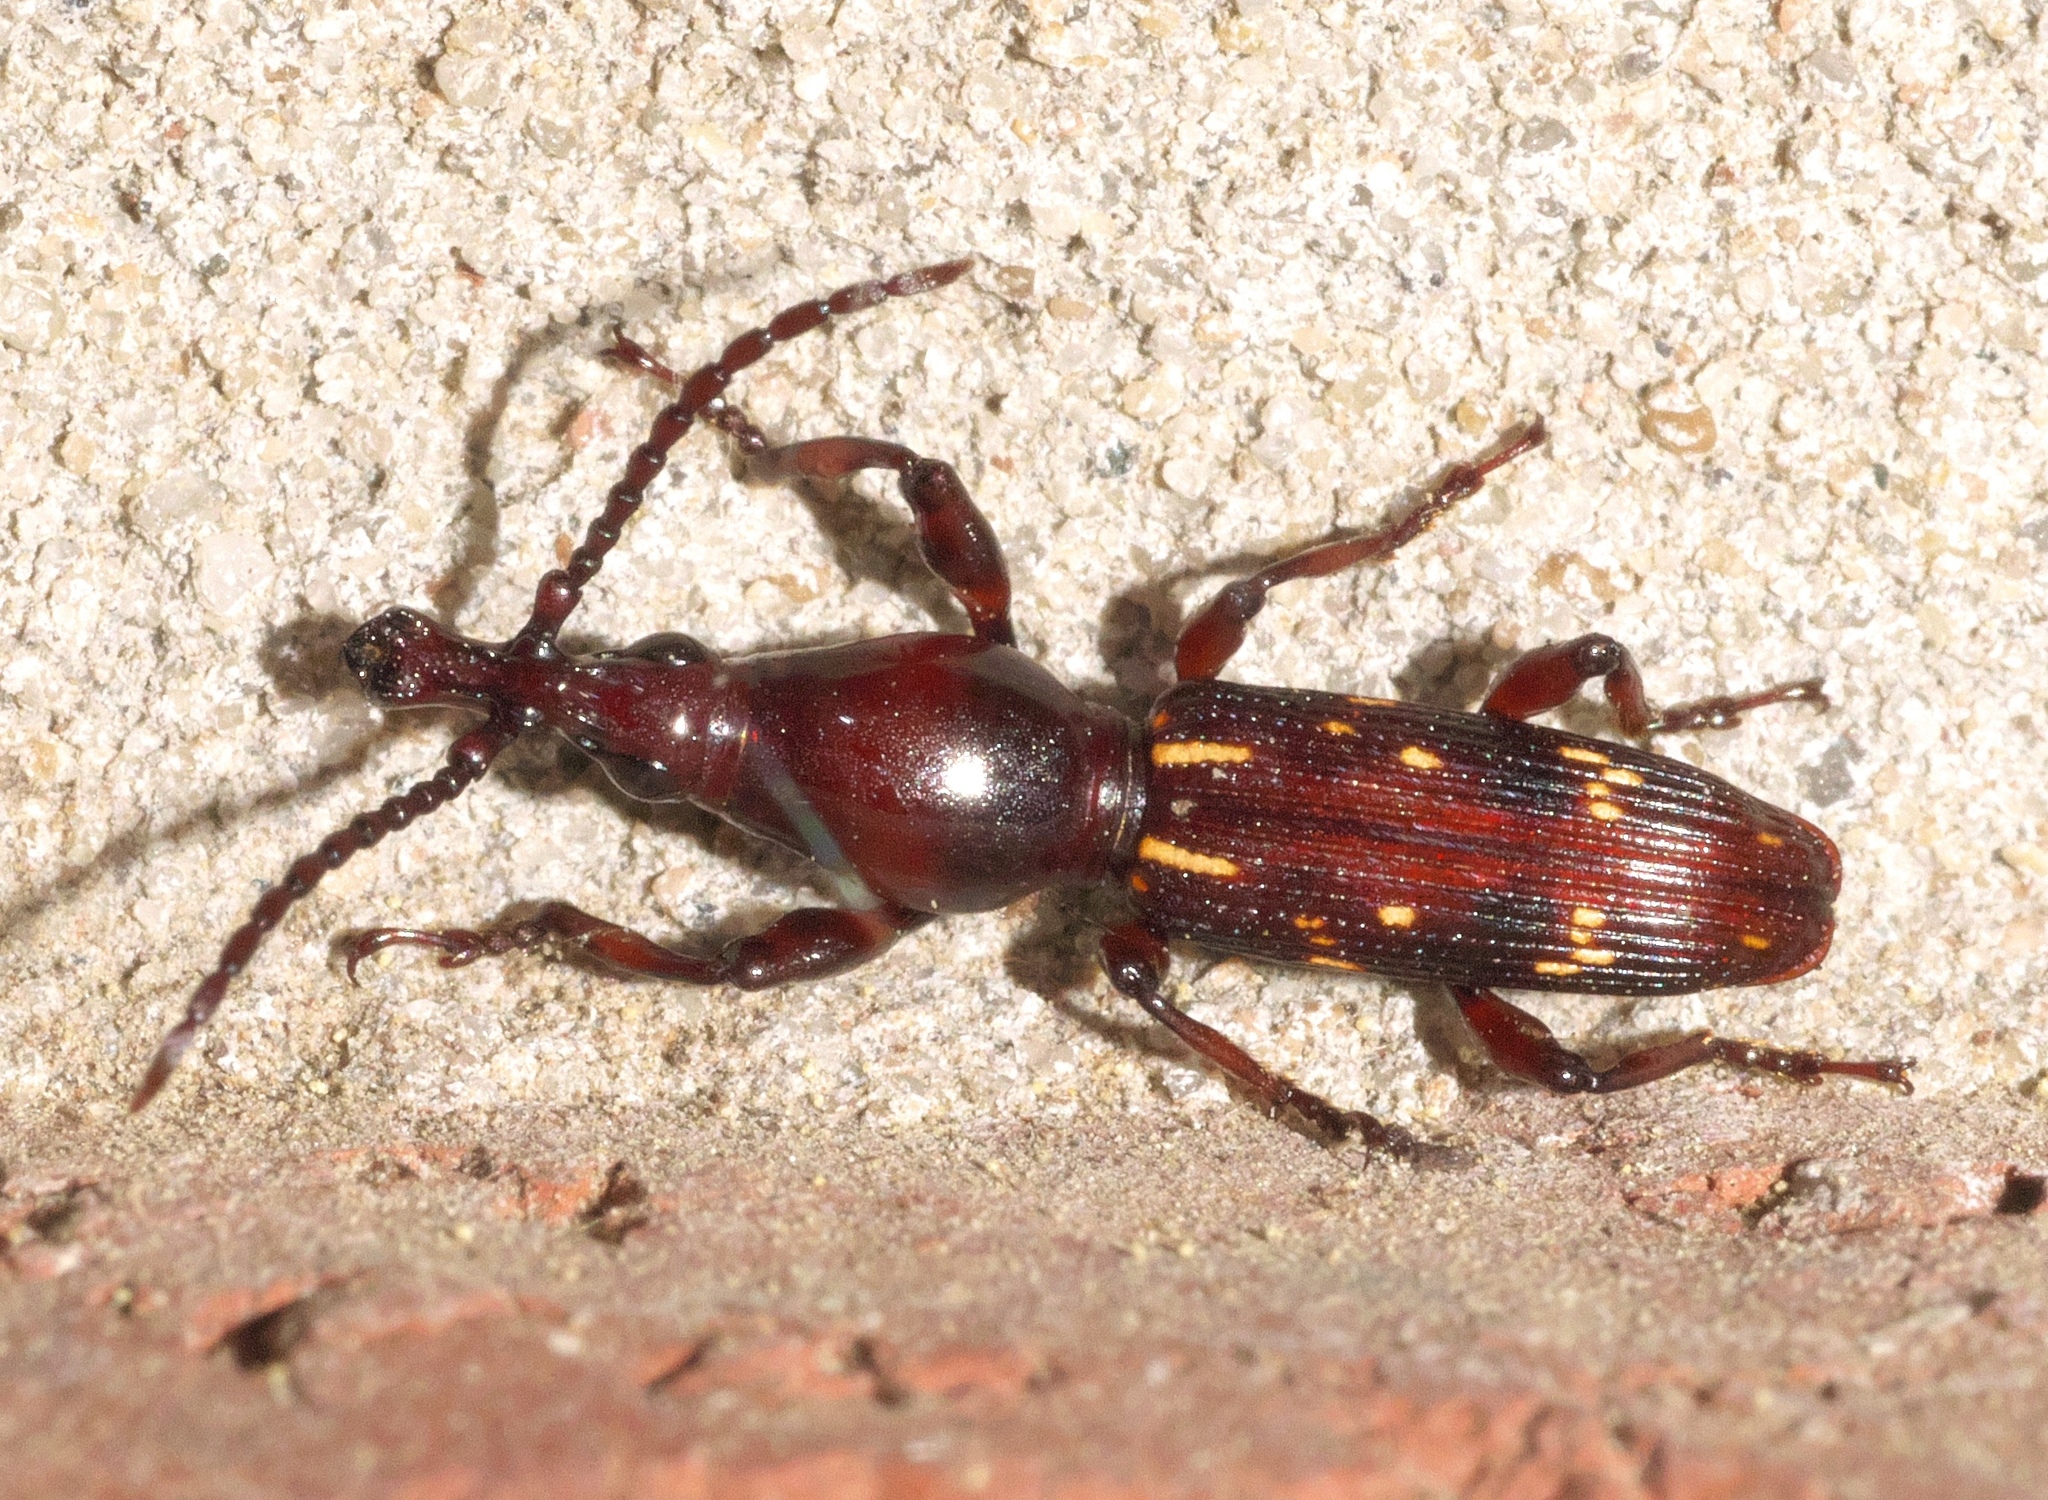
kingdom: Animalia
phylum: Arthropoda
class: Insecta
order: Coleoptera
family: Brentidae
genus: Arrenodes
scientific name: Arrenodes minutus
